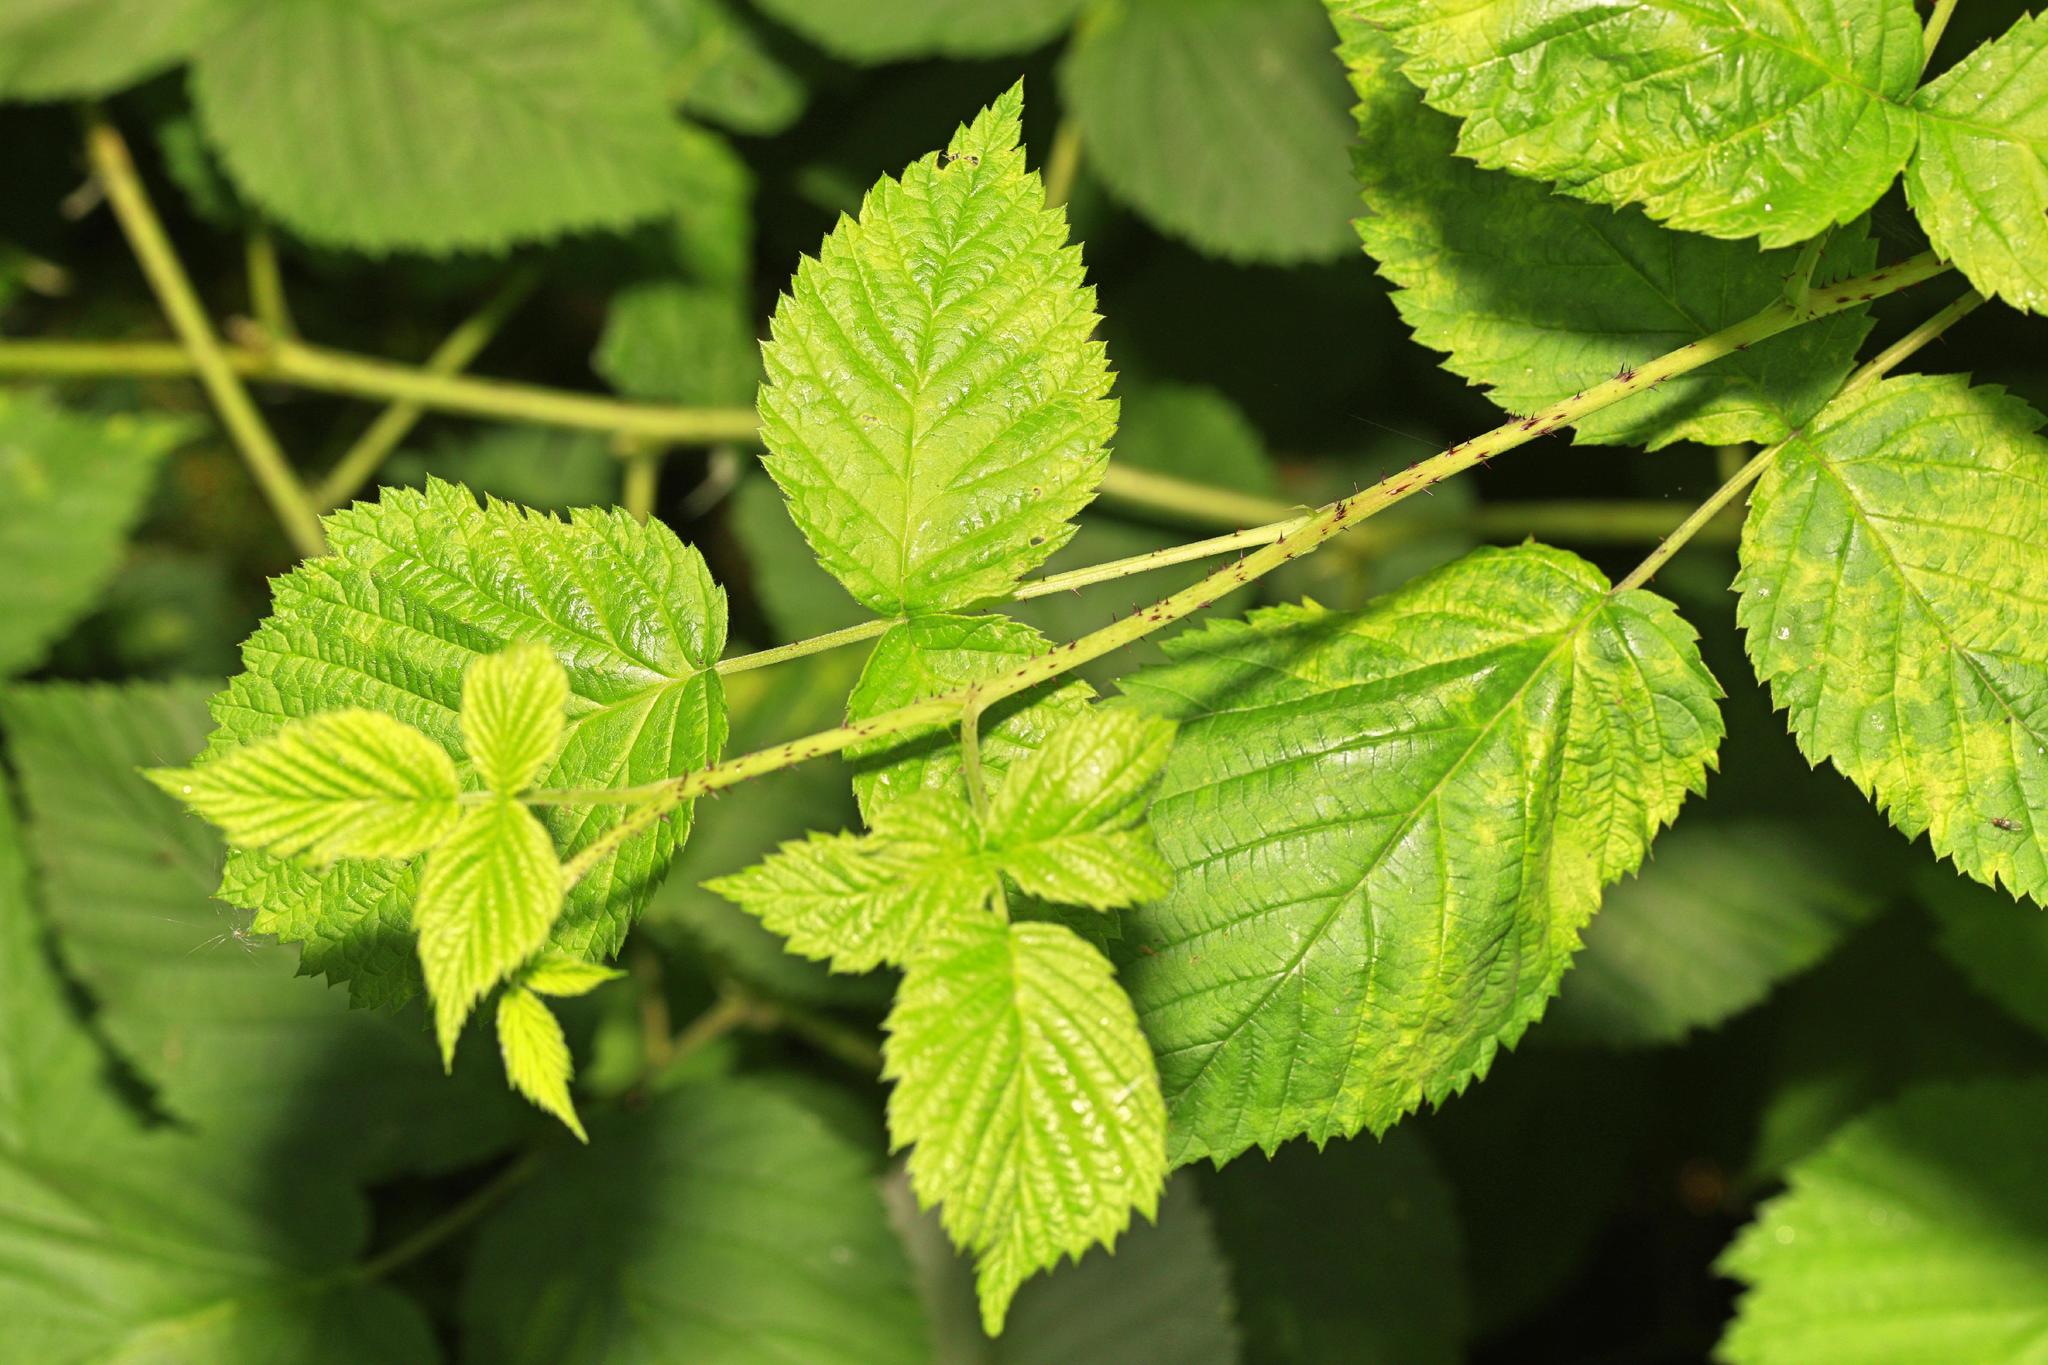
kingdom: Plantae
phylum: Tracheophyta
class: Magnoliopsida
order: Rosales
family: Rosaceae
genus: Rubus
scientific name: Rubus idaeus
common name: Raspberry
